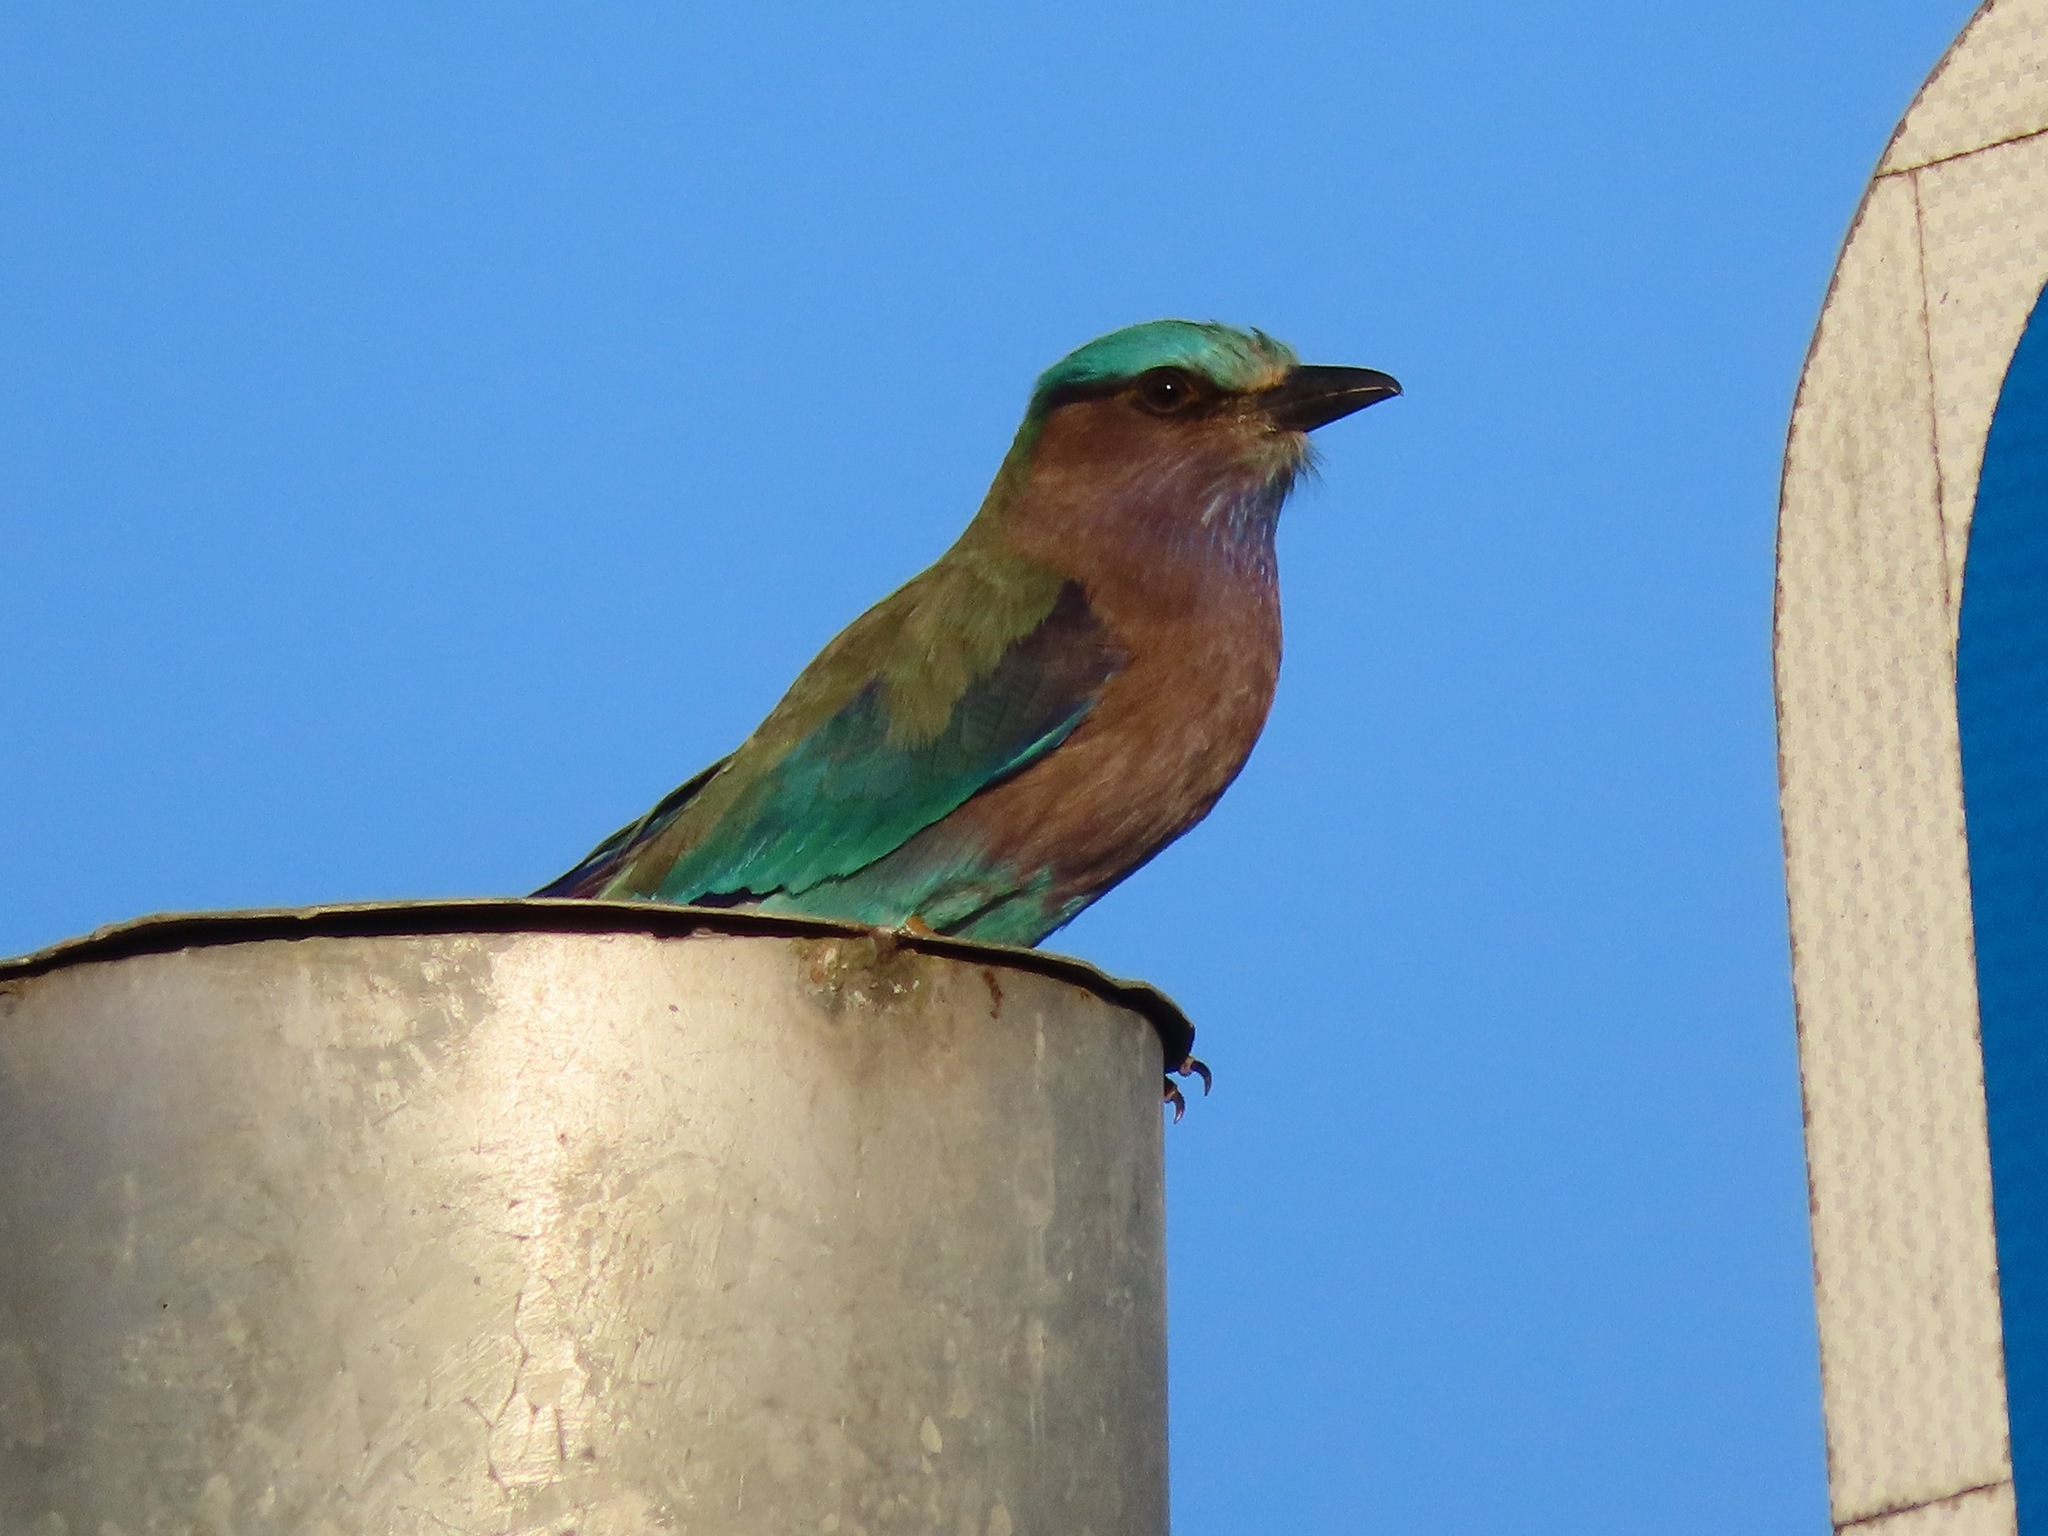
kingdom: Animalia
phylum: Chordata
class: Aves
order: Coraciiformes
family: Coraciidae
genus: Coracias
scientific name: Coracias affinis
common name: Indochinese roller
